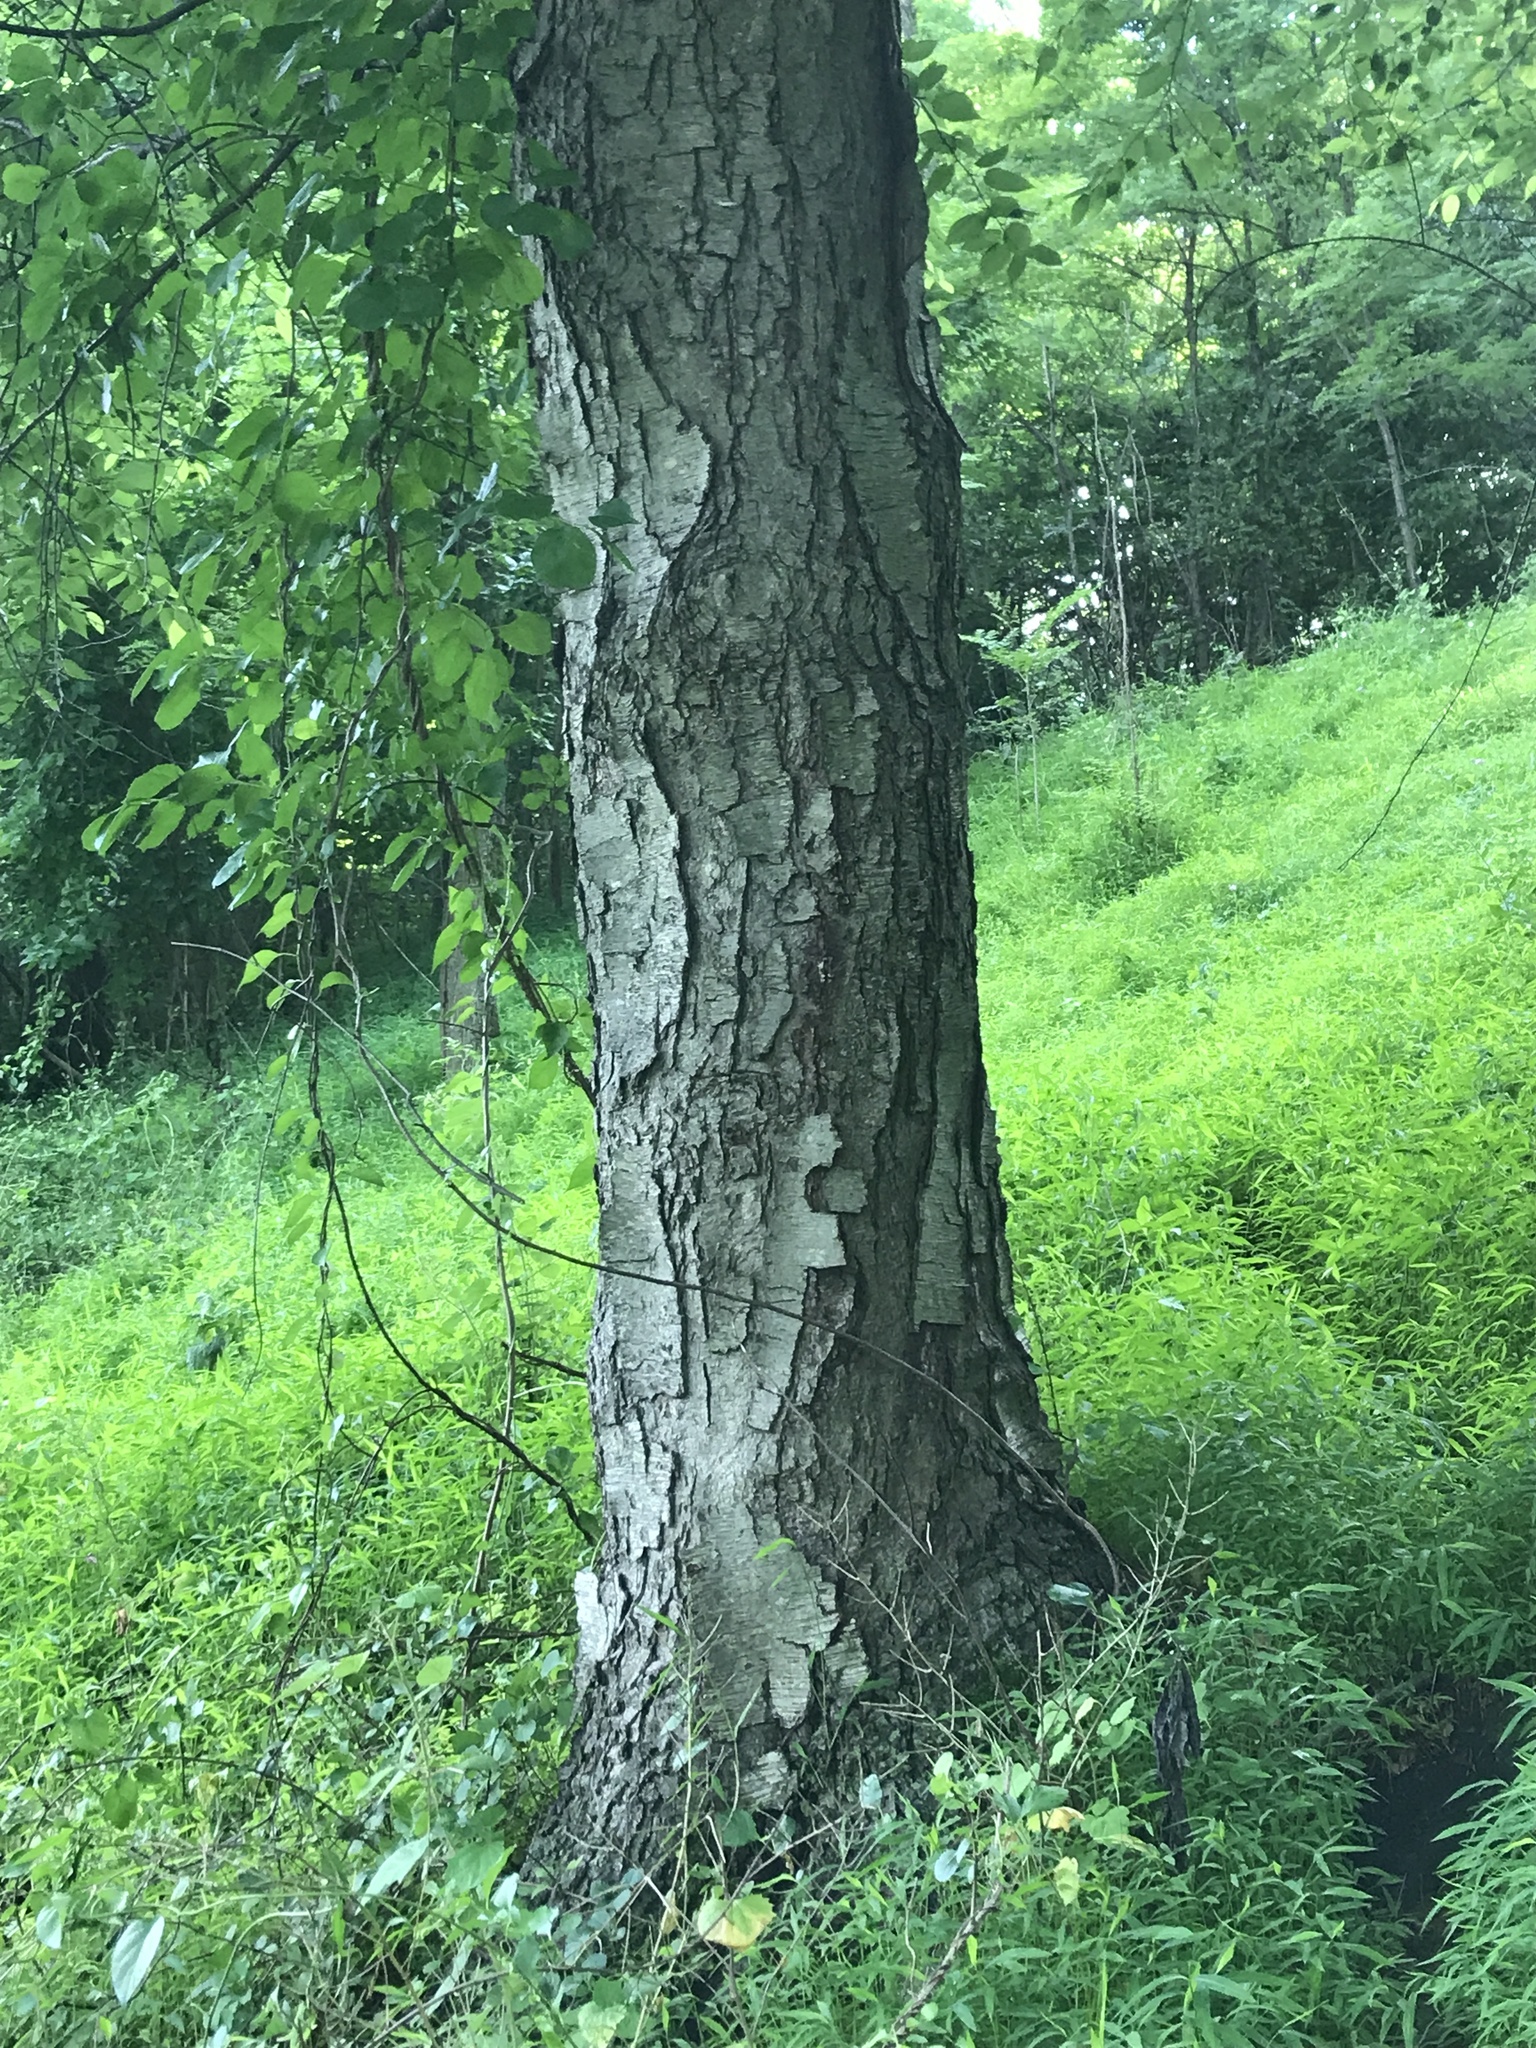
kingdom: Plantae
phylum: Tracheophyta
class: Magnoliopsida
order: Fagales
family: Betulaceae
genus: Betula
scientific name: Betula lenta
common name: Black birch
